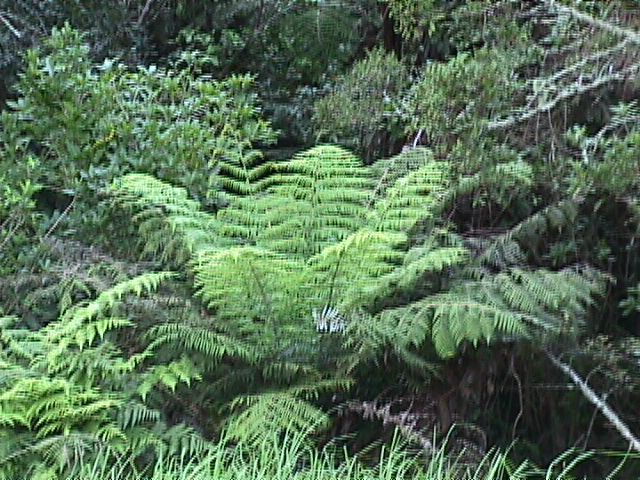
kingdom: Plantae
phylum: Tracheophyta
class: Polypodiopsida
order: Cyatheales
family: Cyatheaceae
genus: Alsophila
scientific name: Alsophila dealbata
